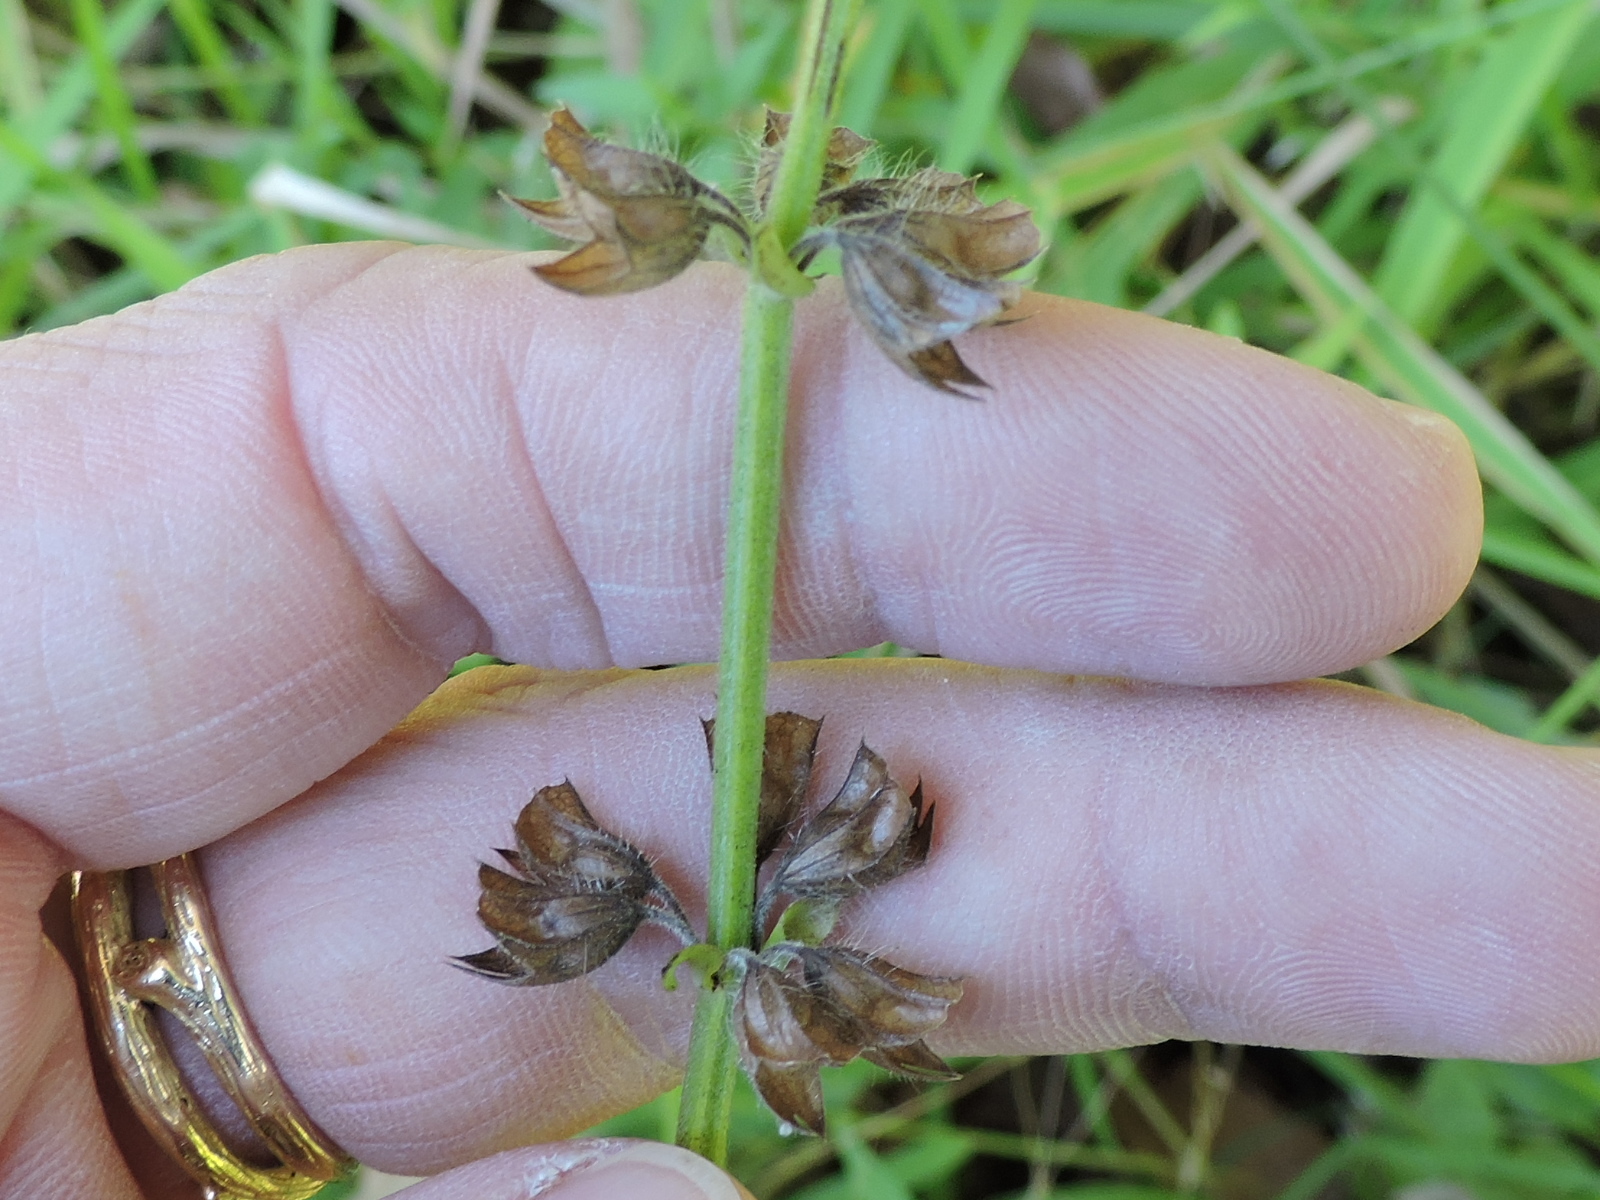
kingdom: Plantae
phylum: Tracheophyta
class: Magnoliopsida
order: Lamiales
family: Lamiaceae
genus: Salvia
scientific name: Salvia lyrata
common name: Cancerweed
